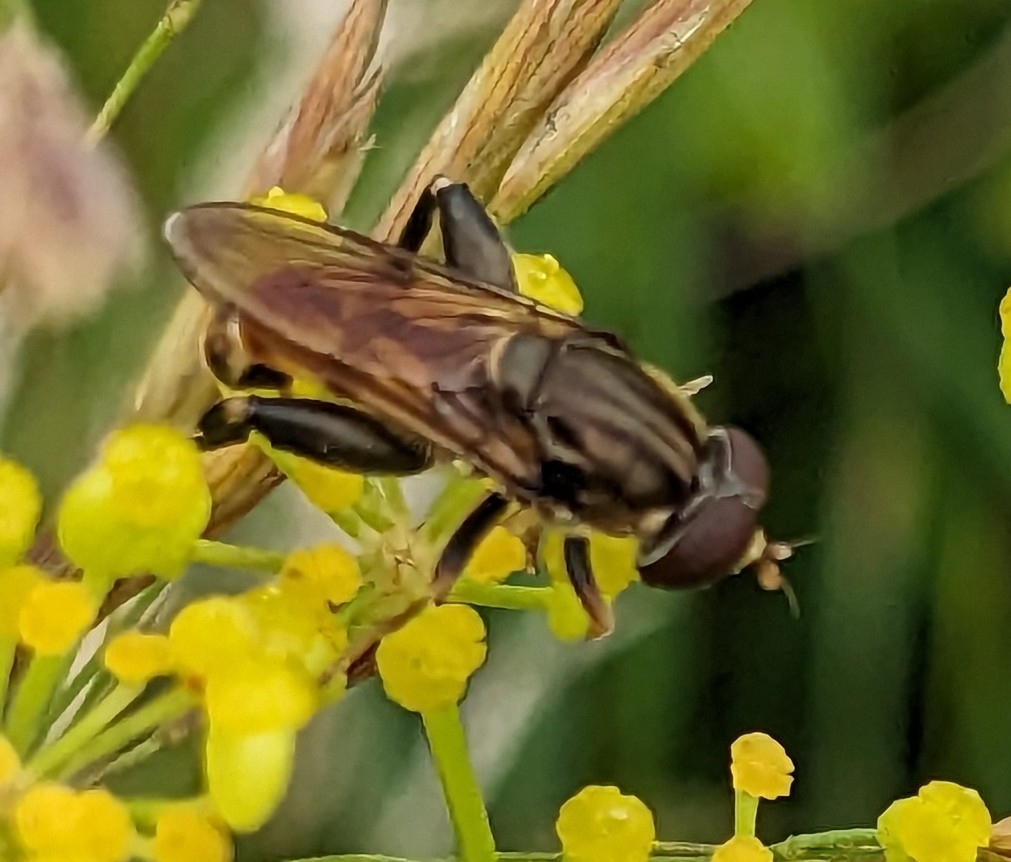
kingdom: Animalia
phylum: Arthropoda
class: Insecta
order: Diptera
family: Syrphidae
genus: Tropidia
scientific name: Tropidia quadrata
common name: Common thick-legged fly
